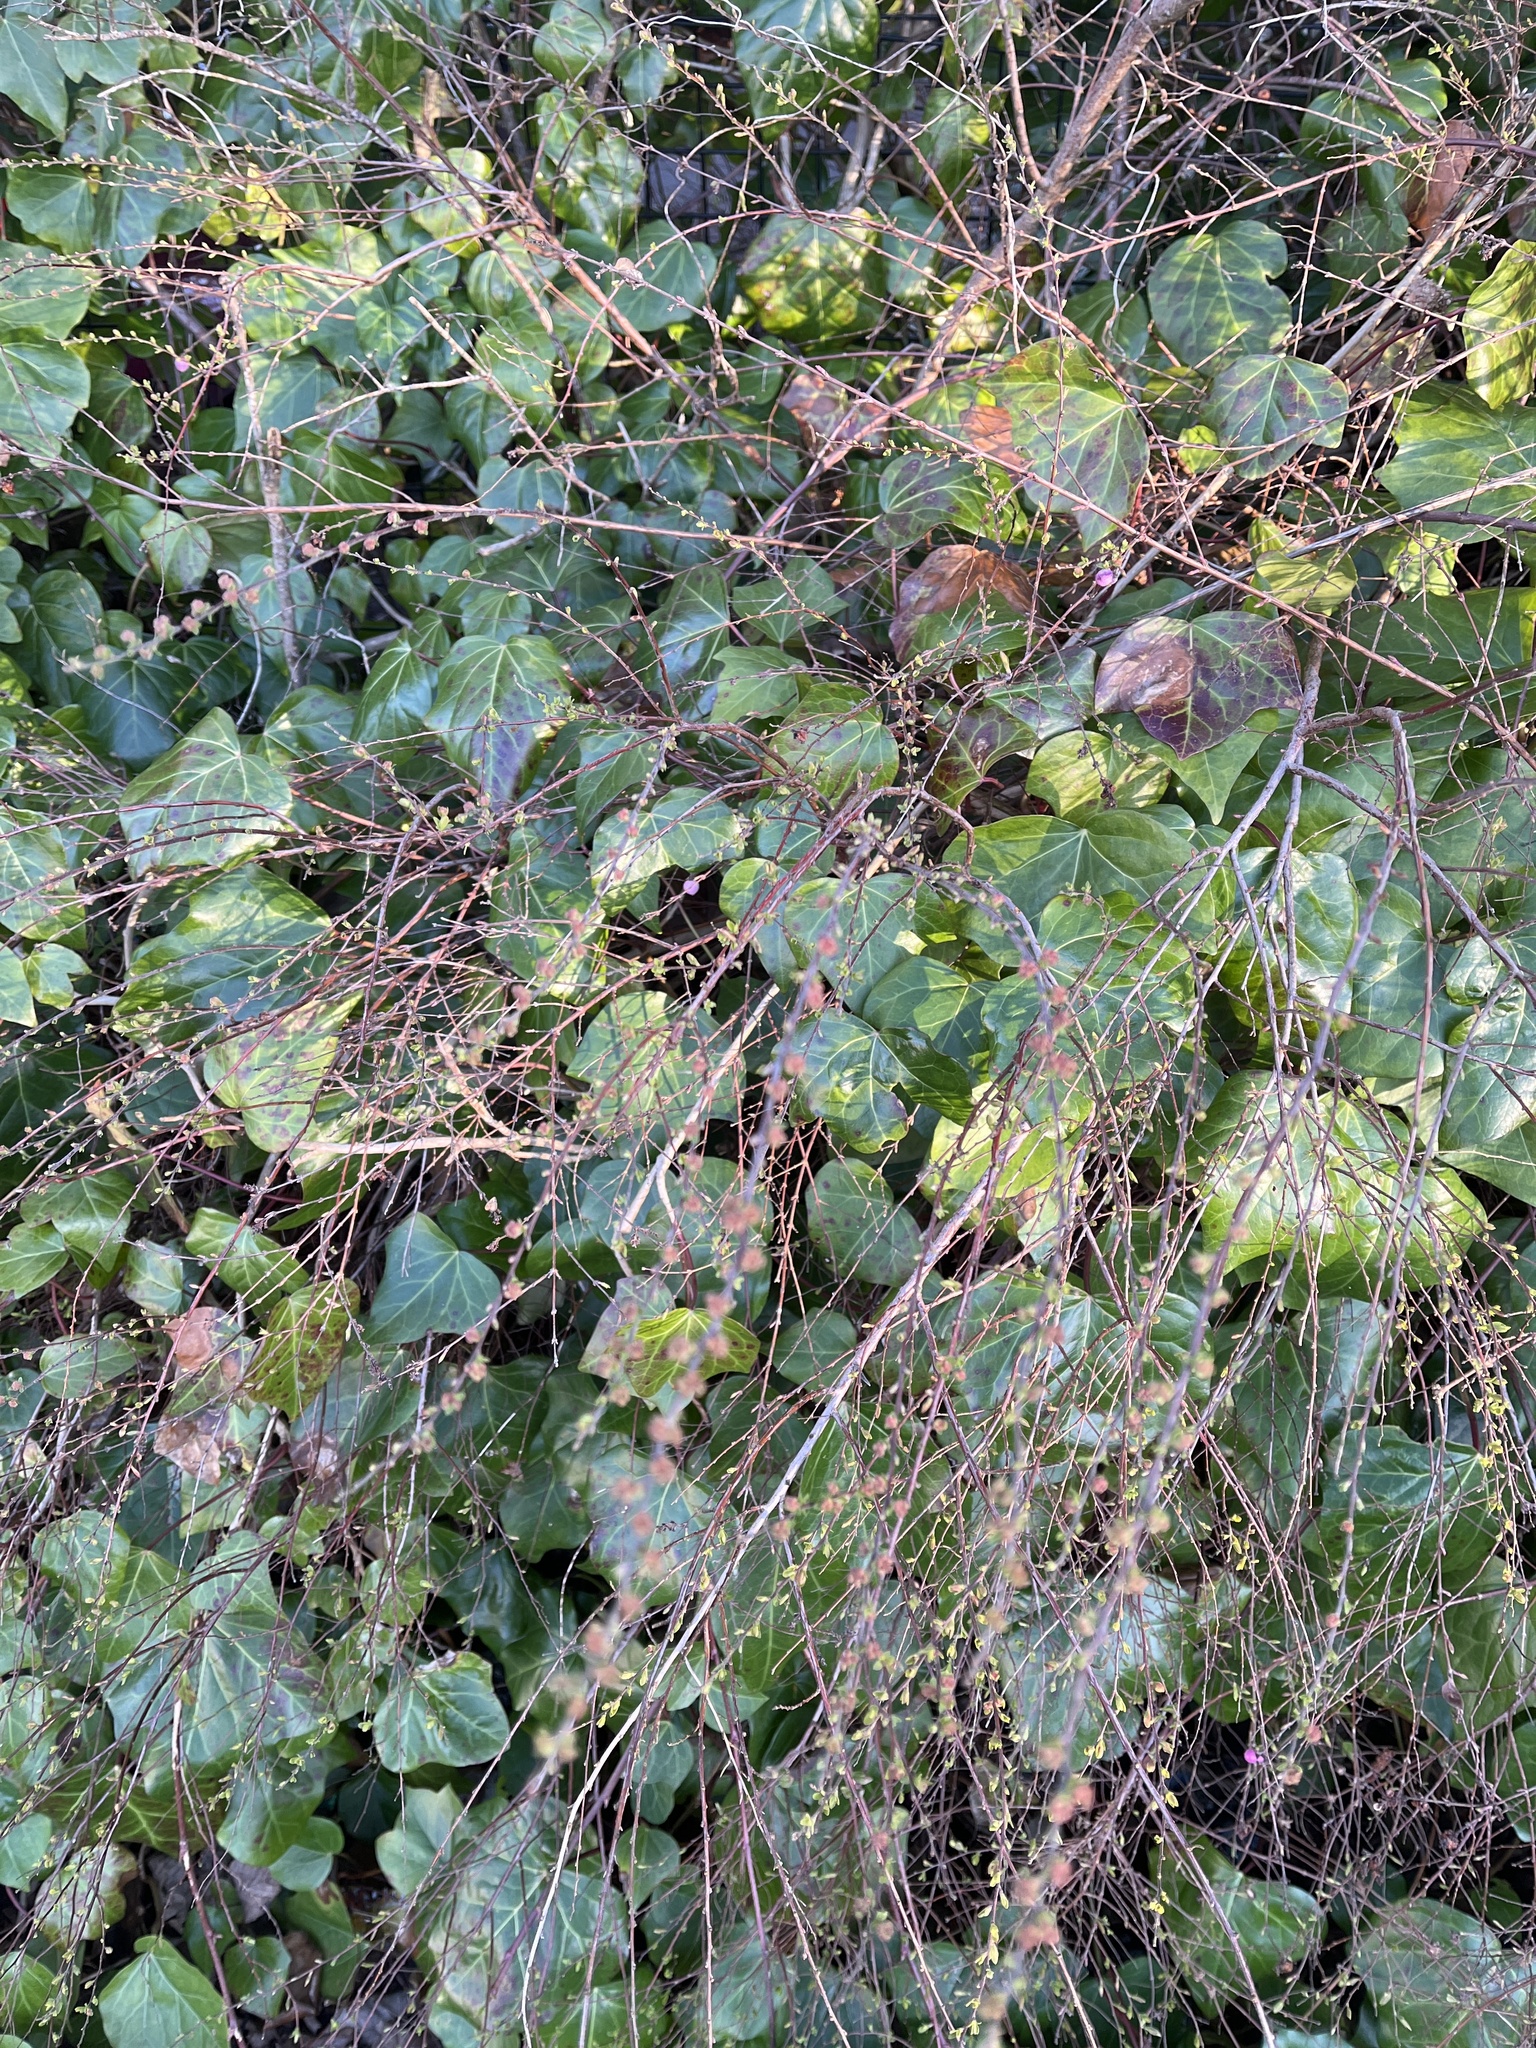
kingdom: Plantae
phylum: Tracheophyta
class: Magnoliopsida
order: Dipsacales
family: Caprifoliaceae
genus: Symphoricarpos
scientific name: Symphoricarpos chenaultii
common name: Hybrid coralberry
